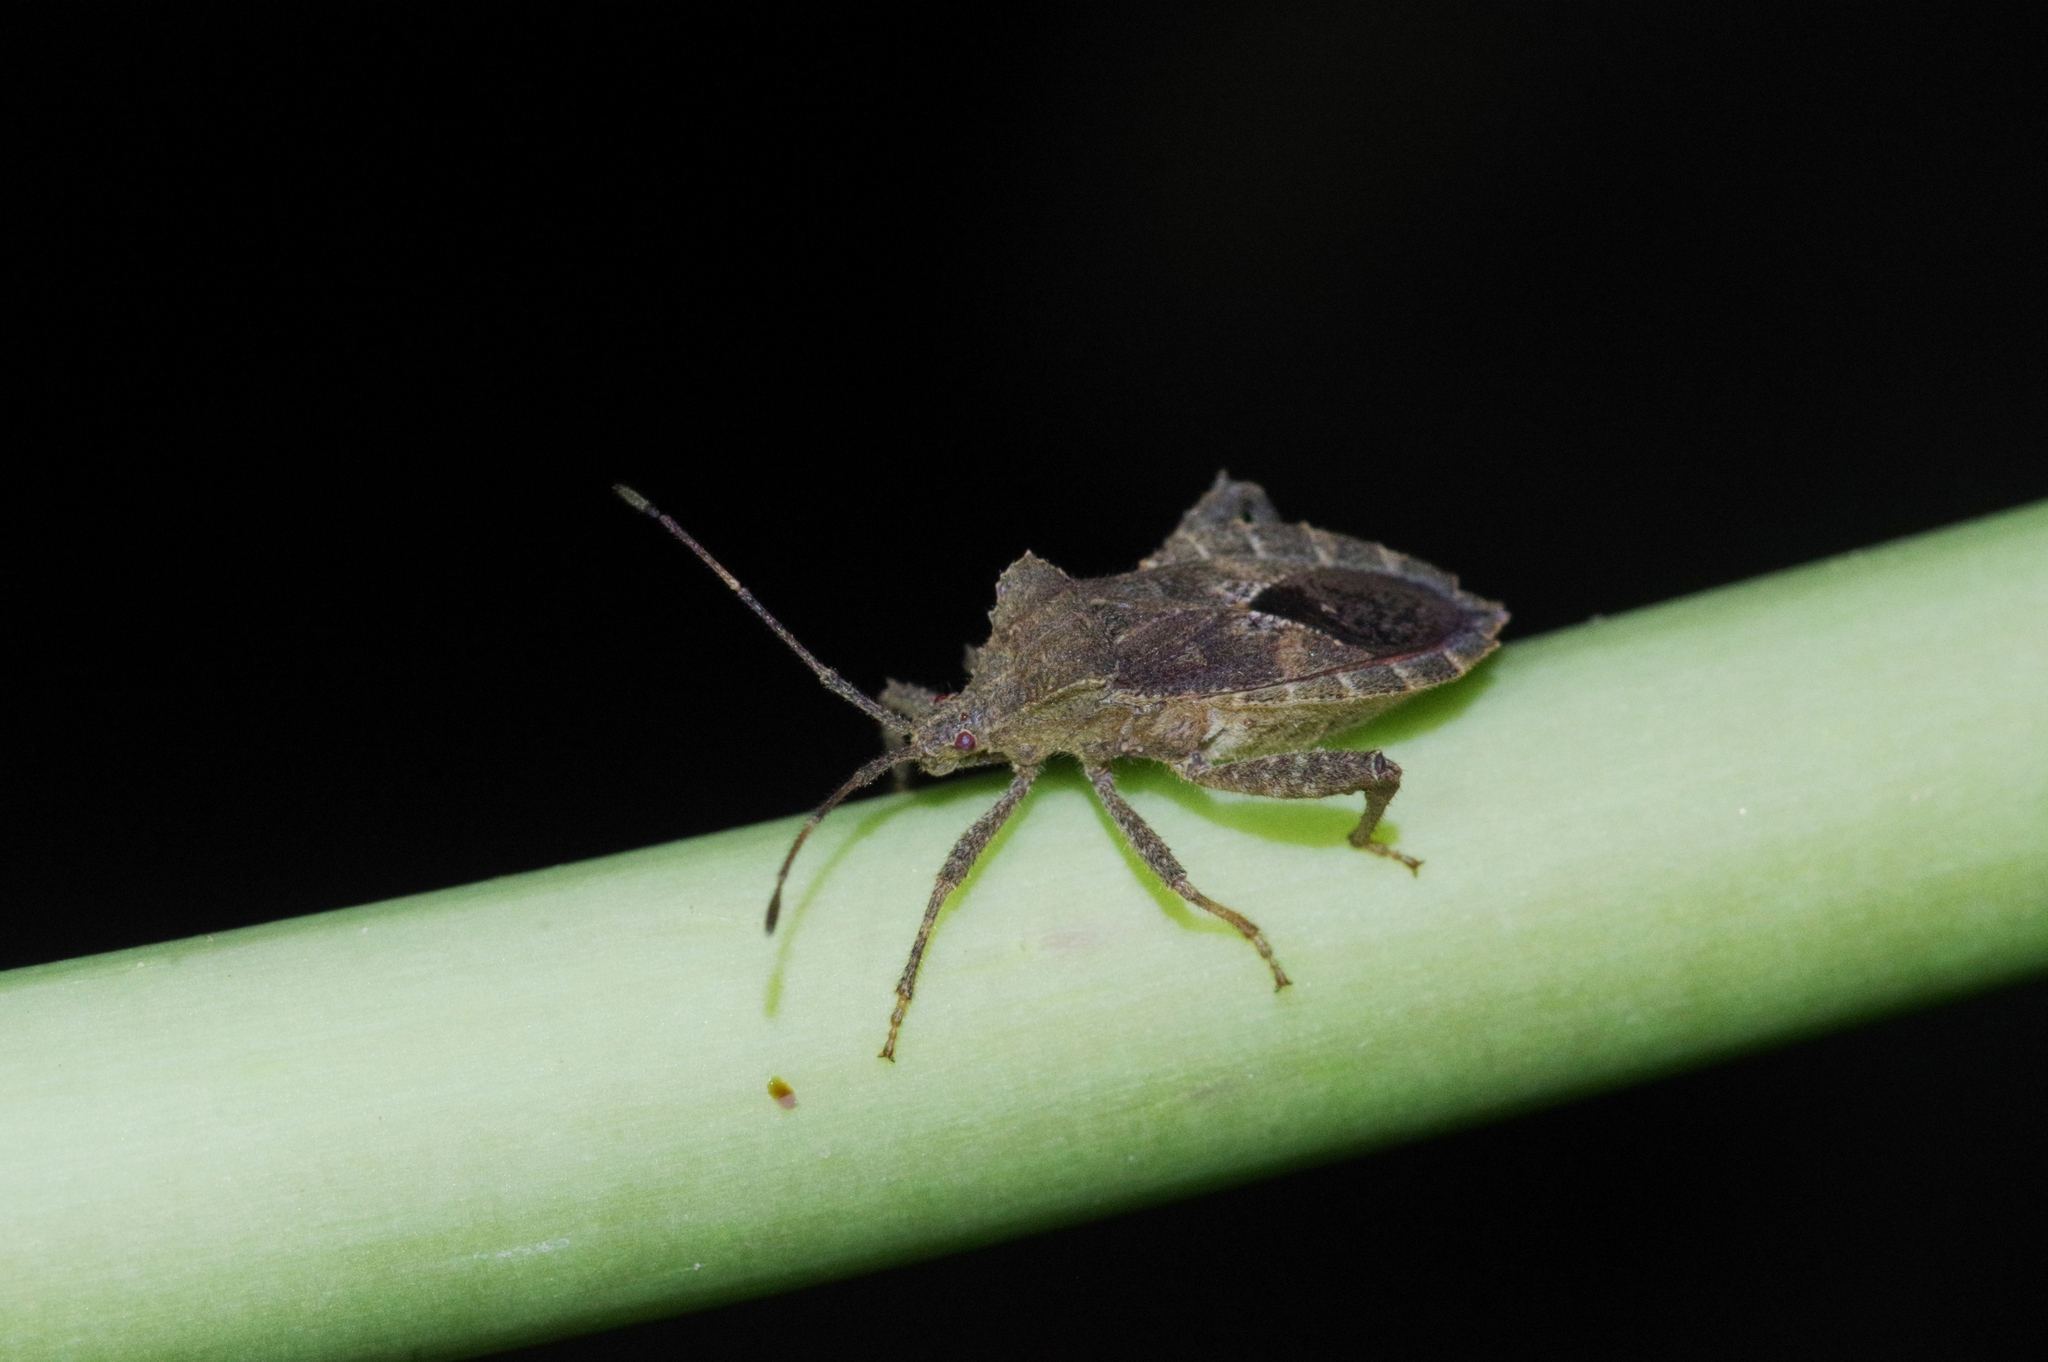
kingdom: Animalia
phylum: Arthropoda
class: Insecta
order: Hemiptera
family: Coreidae
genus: Acanthocoris
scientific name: Acanthocoris sordidus
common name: Winter cherry bug
